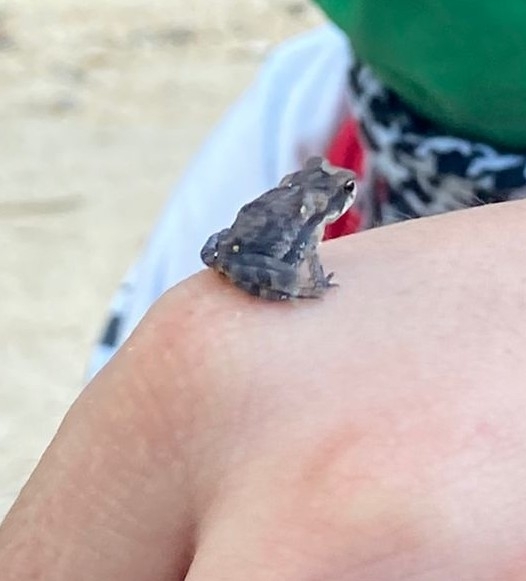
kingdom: Animalia
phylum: Chordata
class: Amphibia
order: Anura
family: Bufonidae
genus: Incilius
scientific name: Incilius valliceps
